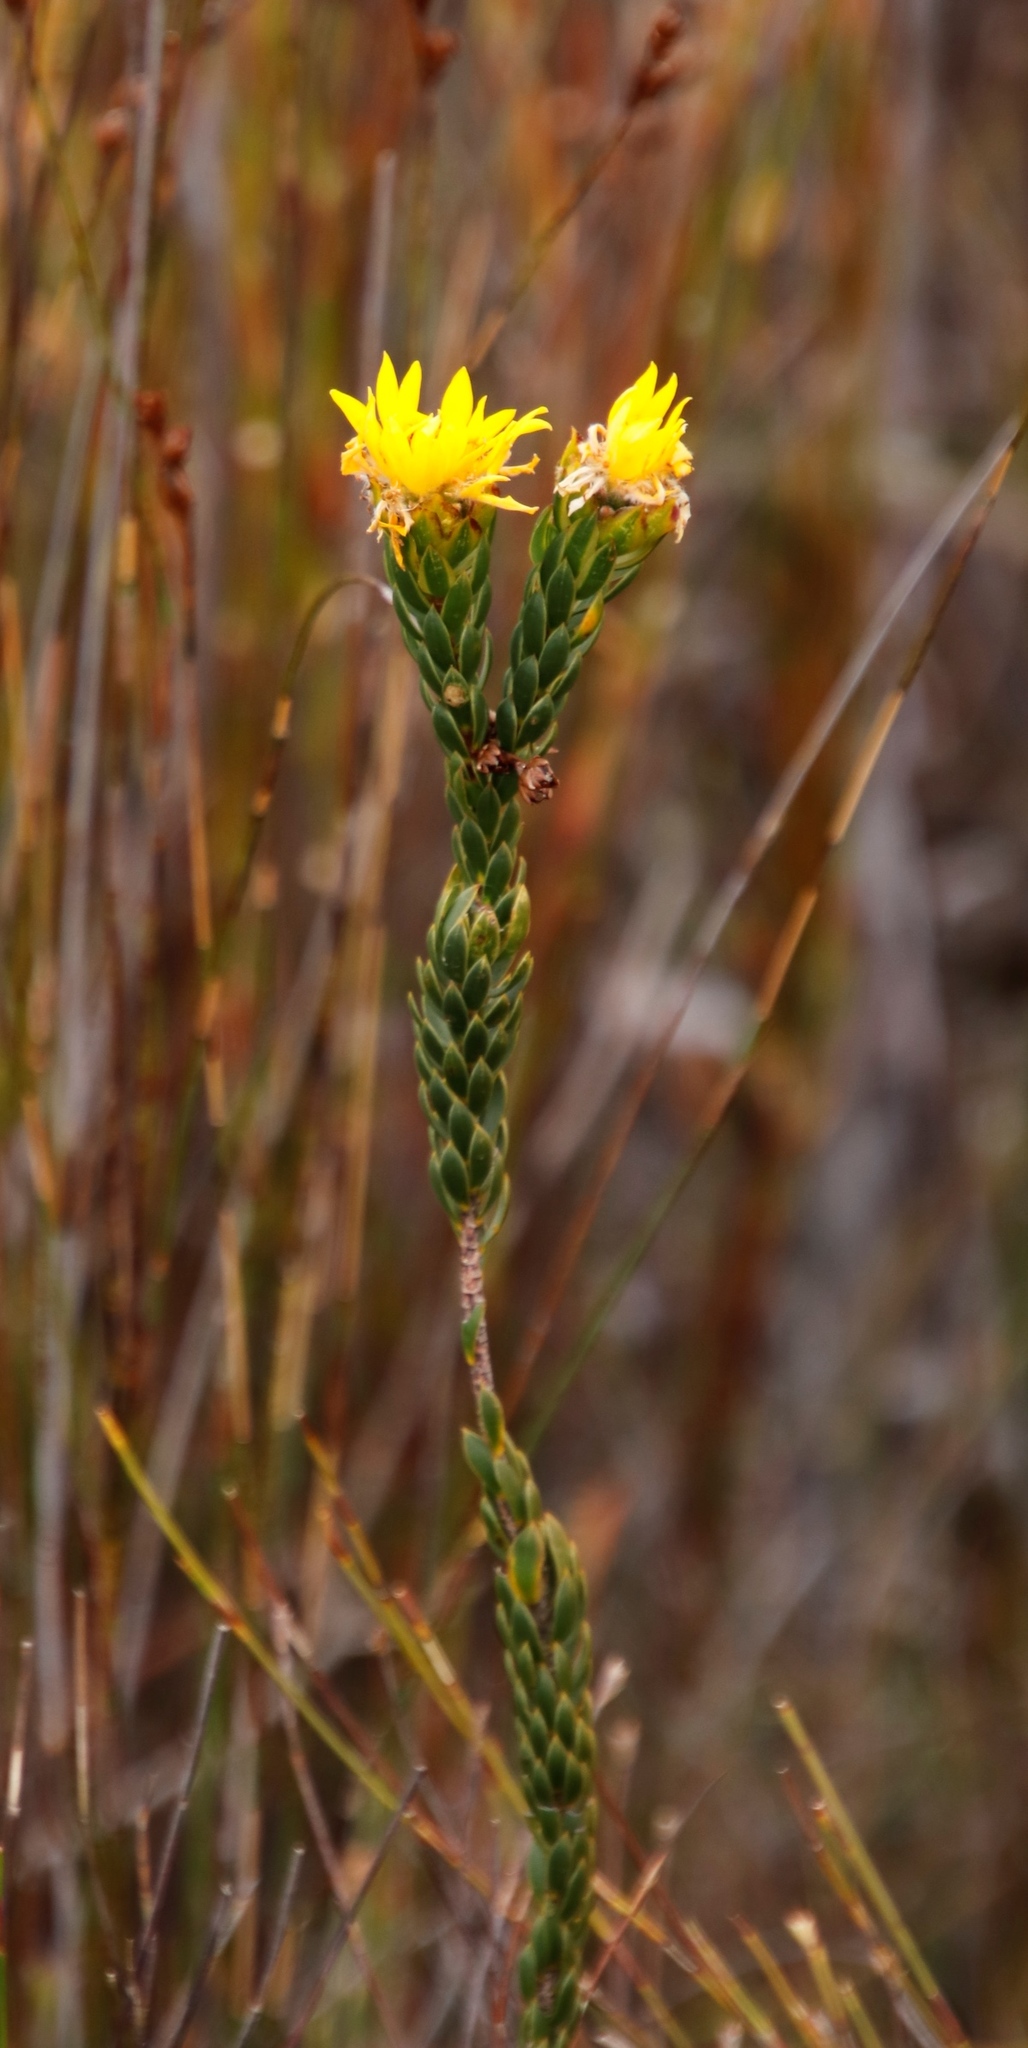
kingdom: Plantae
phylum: Tracheophyta
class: Magnoliopsida
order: Malvales
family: Thymelaeaceae
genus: Lachnaea
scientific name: Lachnaea aurea
